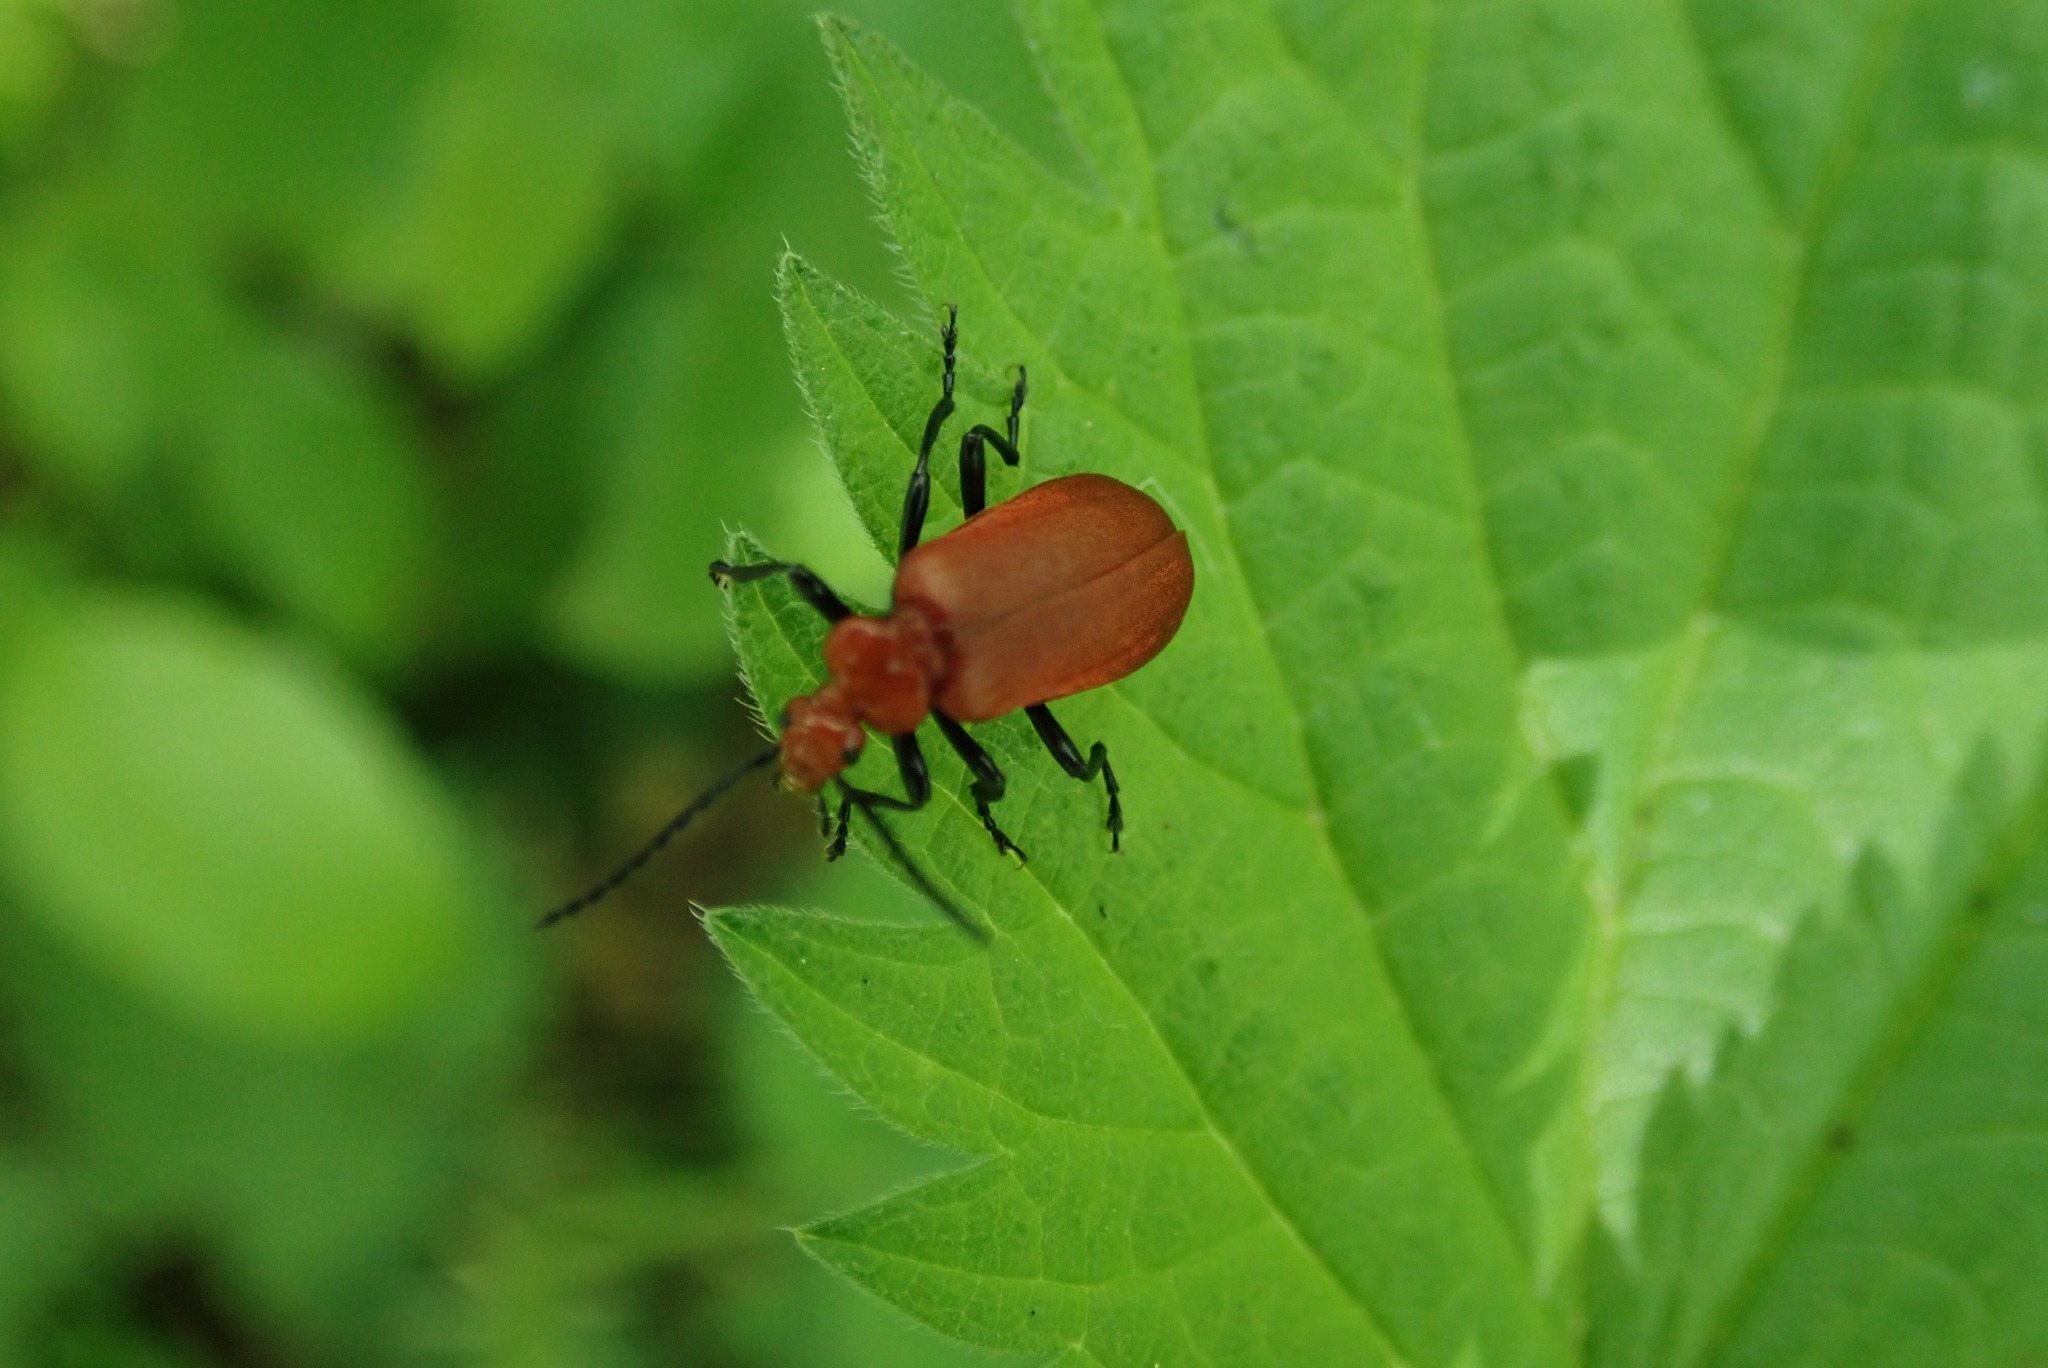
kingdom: Animalia
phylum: Arthropoda
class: Insecta
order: Coleoptera
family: Pyrochroidae
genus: Pyrochroa
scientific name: Pyrochroa serraticornis
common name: Red-headed cardinal beetle
